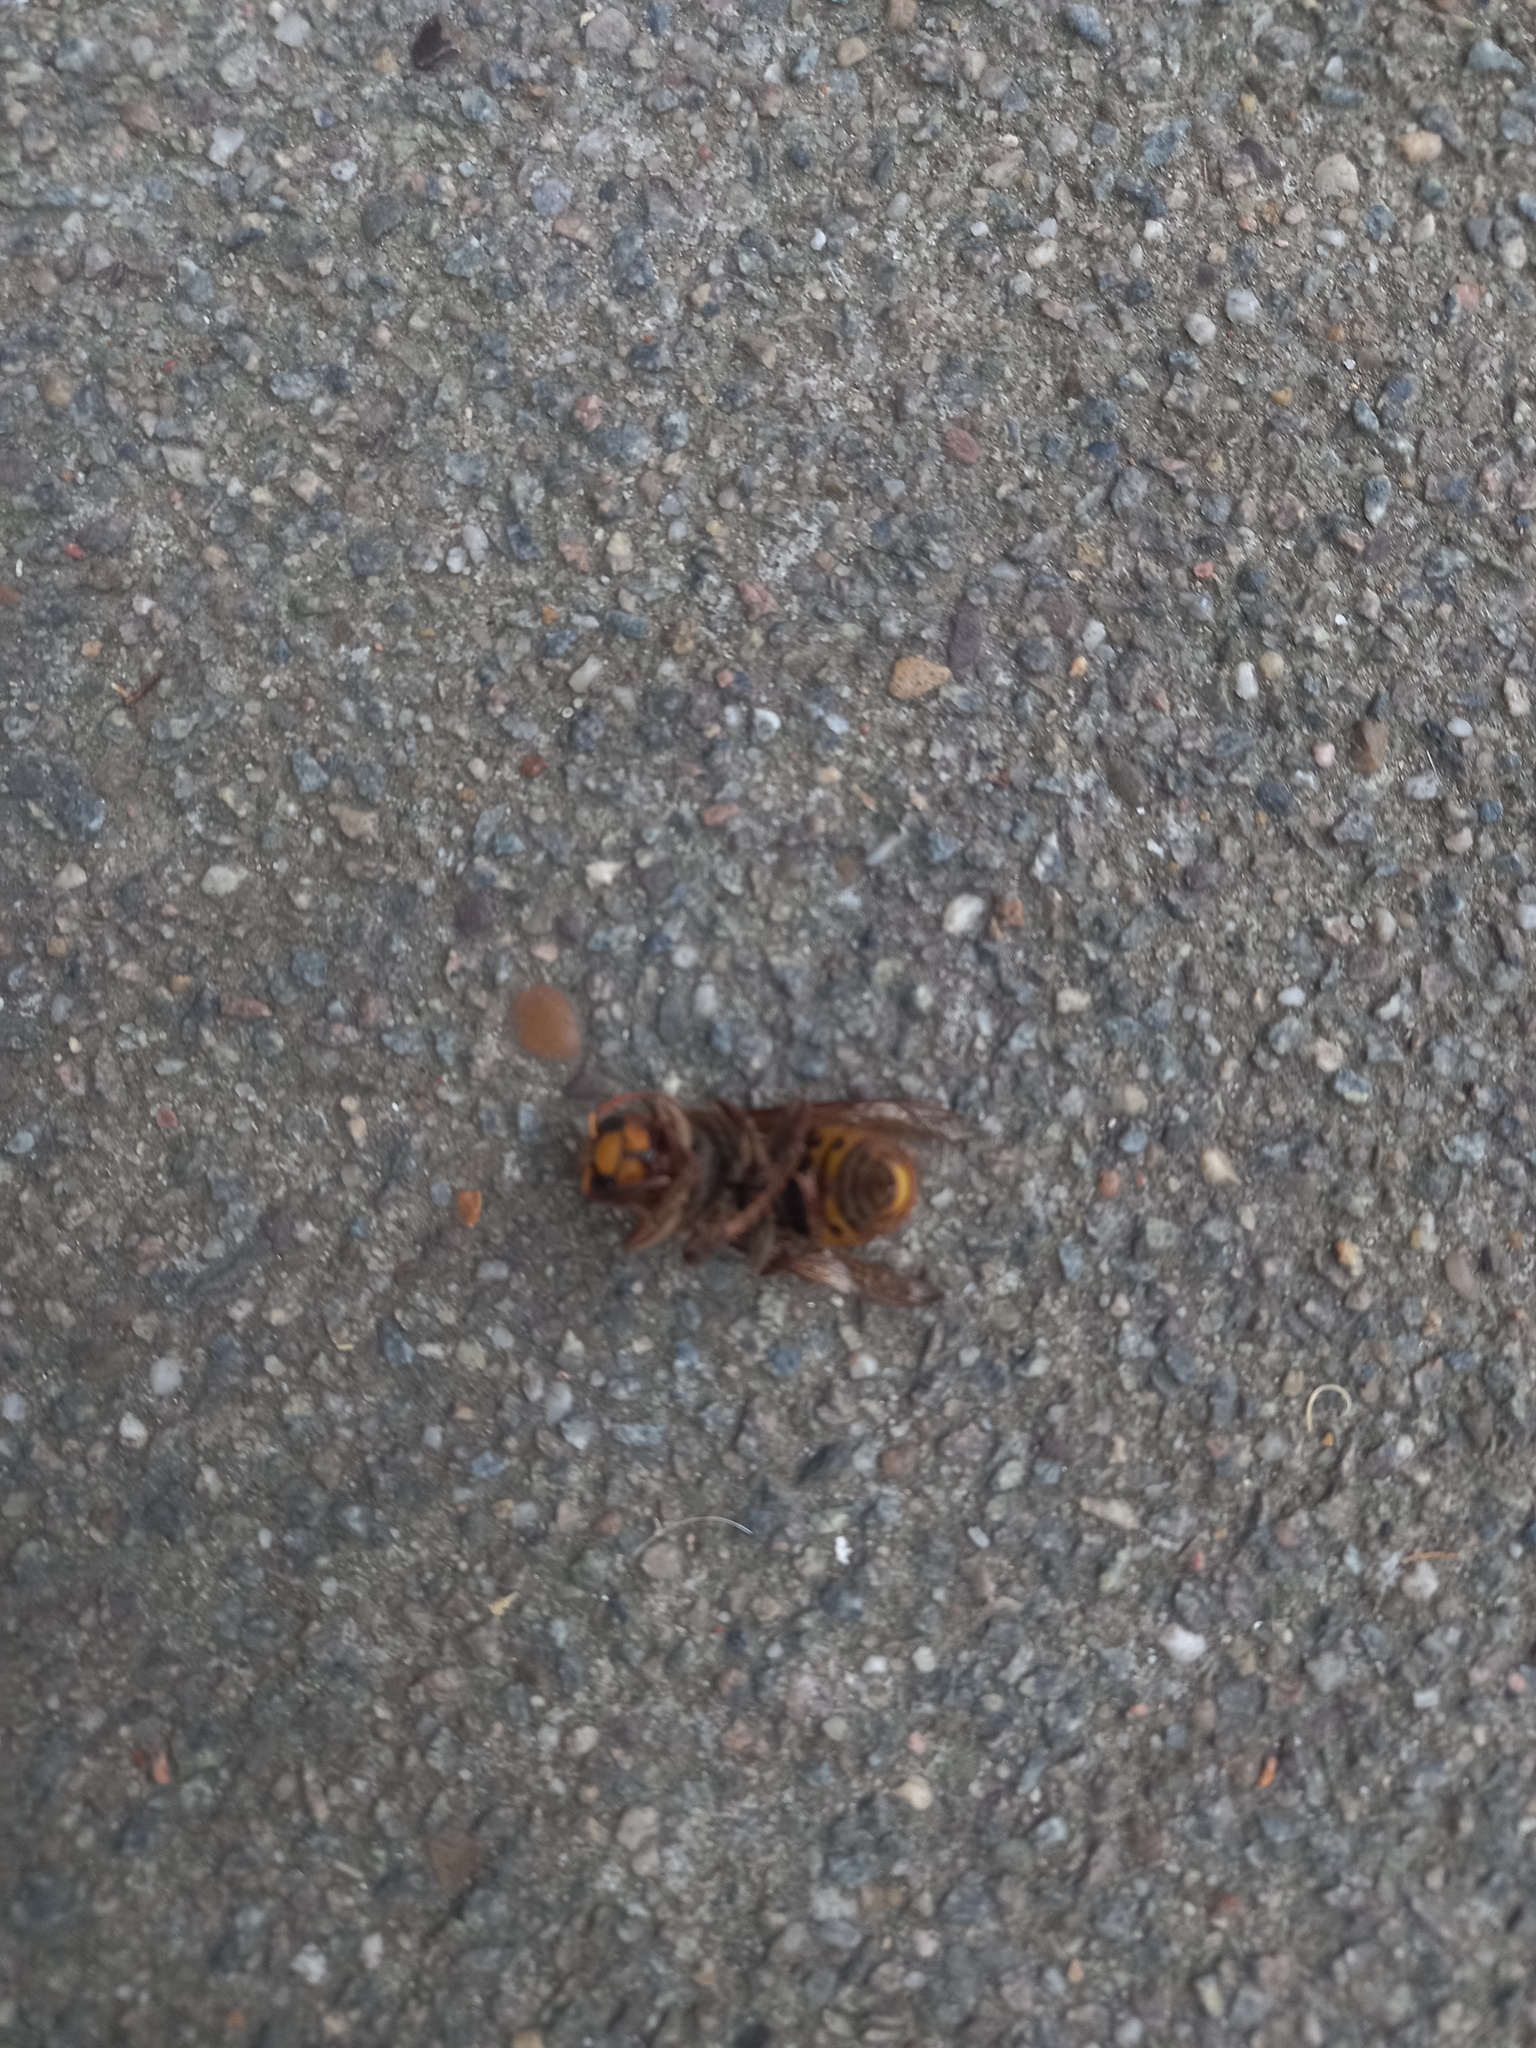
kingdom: Animalia
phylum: Arthropoda
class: Insecta
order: Hymenoptera
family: Vespidae
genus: Vespa
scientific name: Vespa crabro
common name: Hornet
